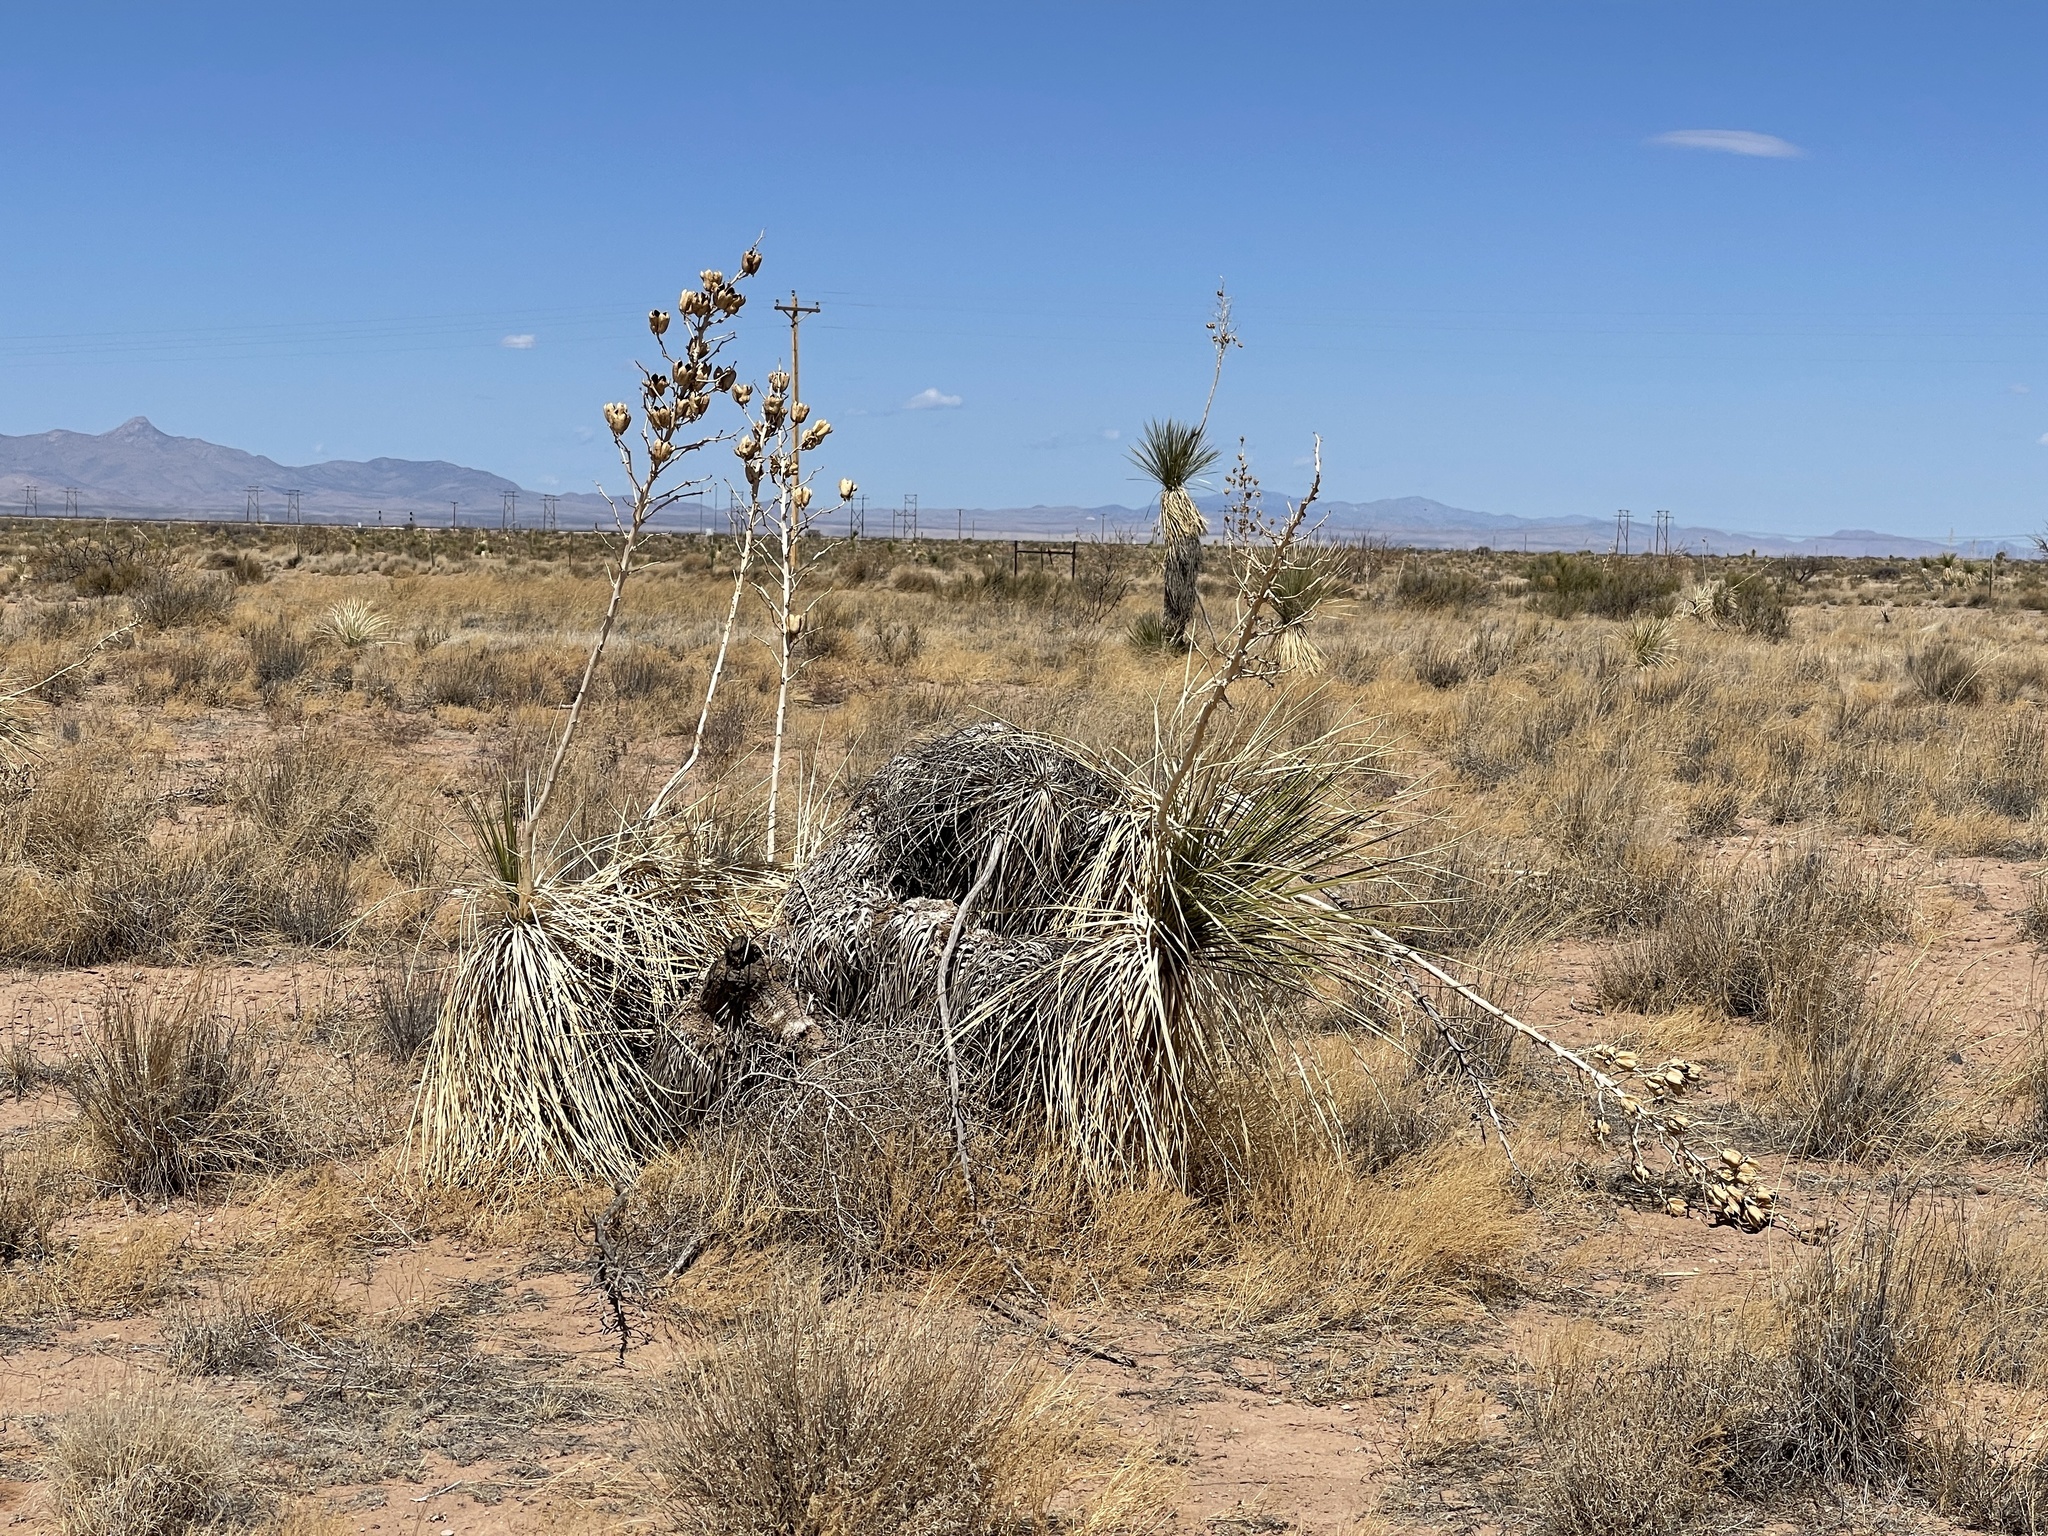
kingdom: Plantae
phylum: Tracheophyta
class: Liliopsida
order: Asparagales
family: Asparagaceae
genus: Yucca
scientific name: Yucca elata
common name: Palmella
